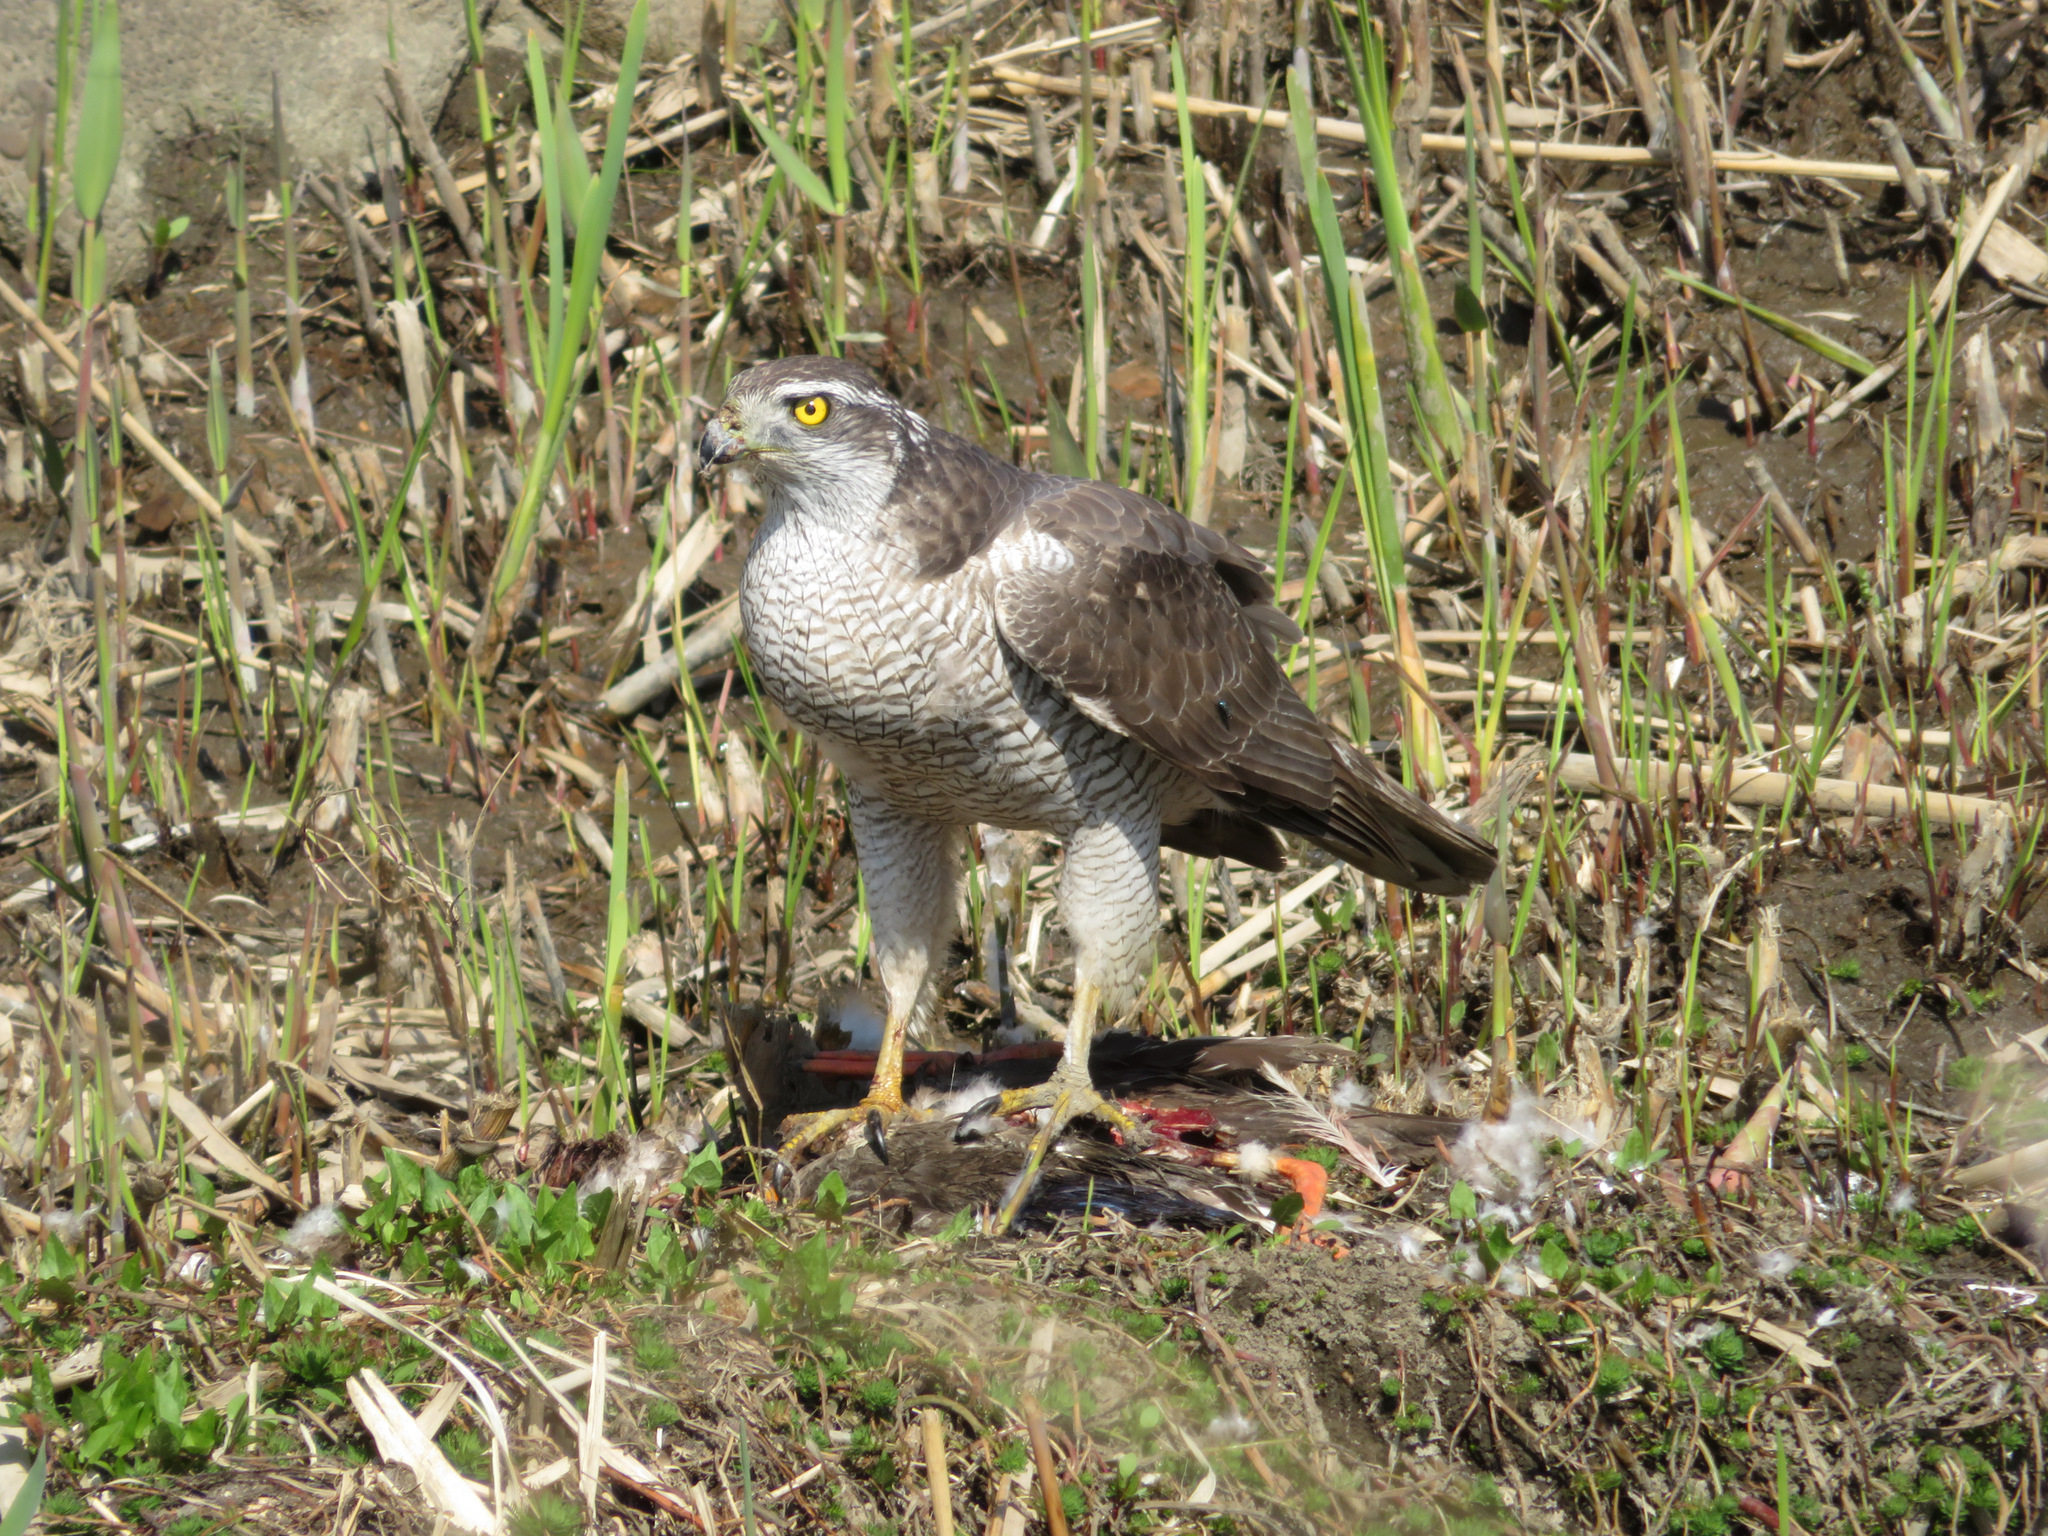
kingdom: Animalia
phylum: Chordata
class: Aves
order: Accipitriformes
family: Accipitridae
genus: Accipiter
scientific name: Accipiter gentilis
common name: Northern goshawk
